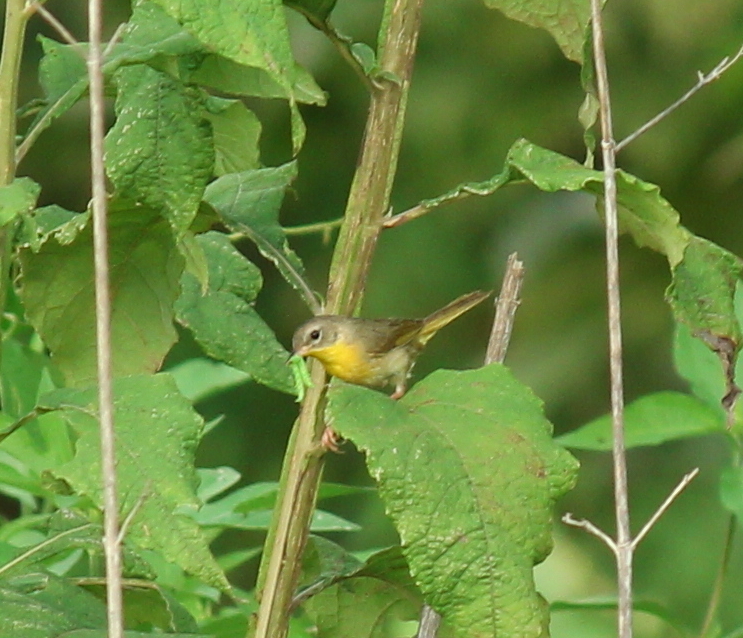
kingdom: Animalia
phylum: Chordata
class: Aves
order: Passeriformes
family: Parulidae
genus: Geothlypis
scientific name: Geothlypis trichas
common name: Common yellowthroat
